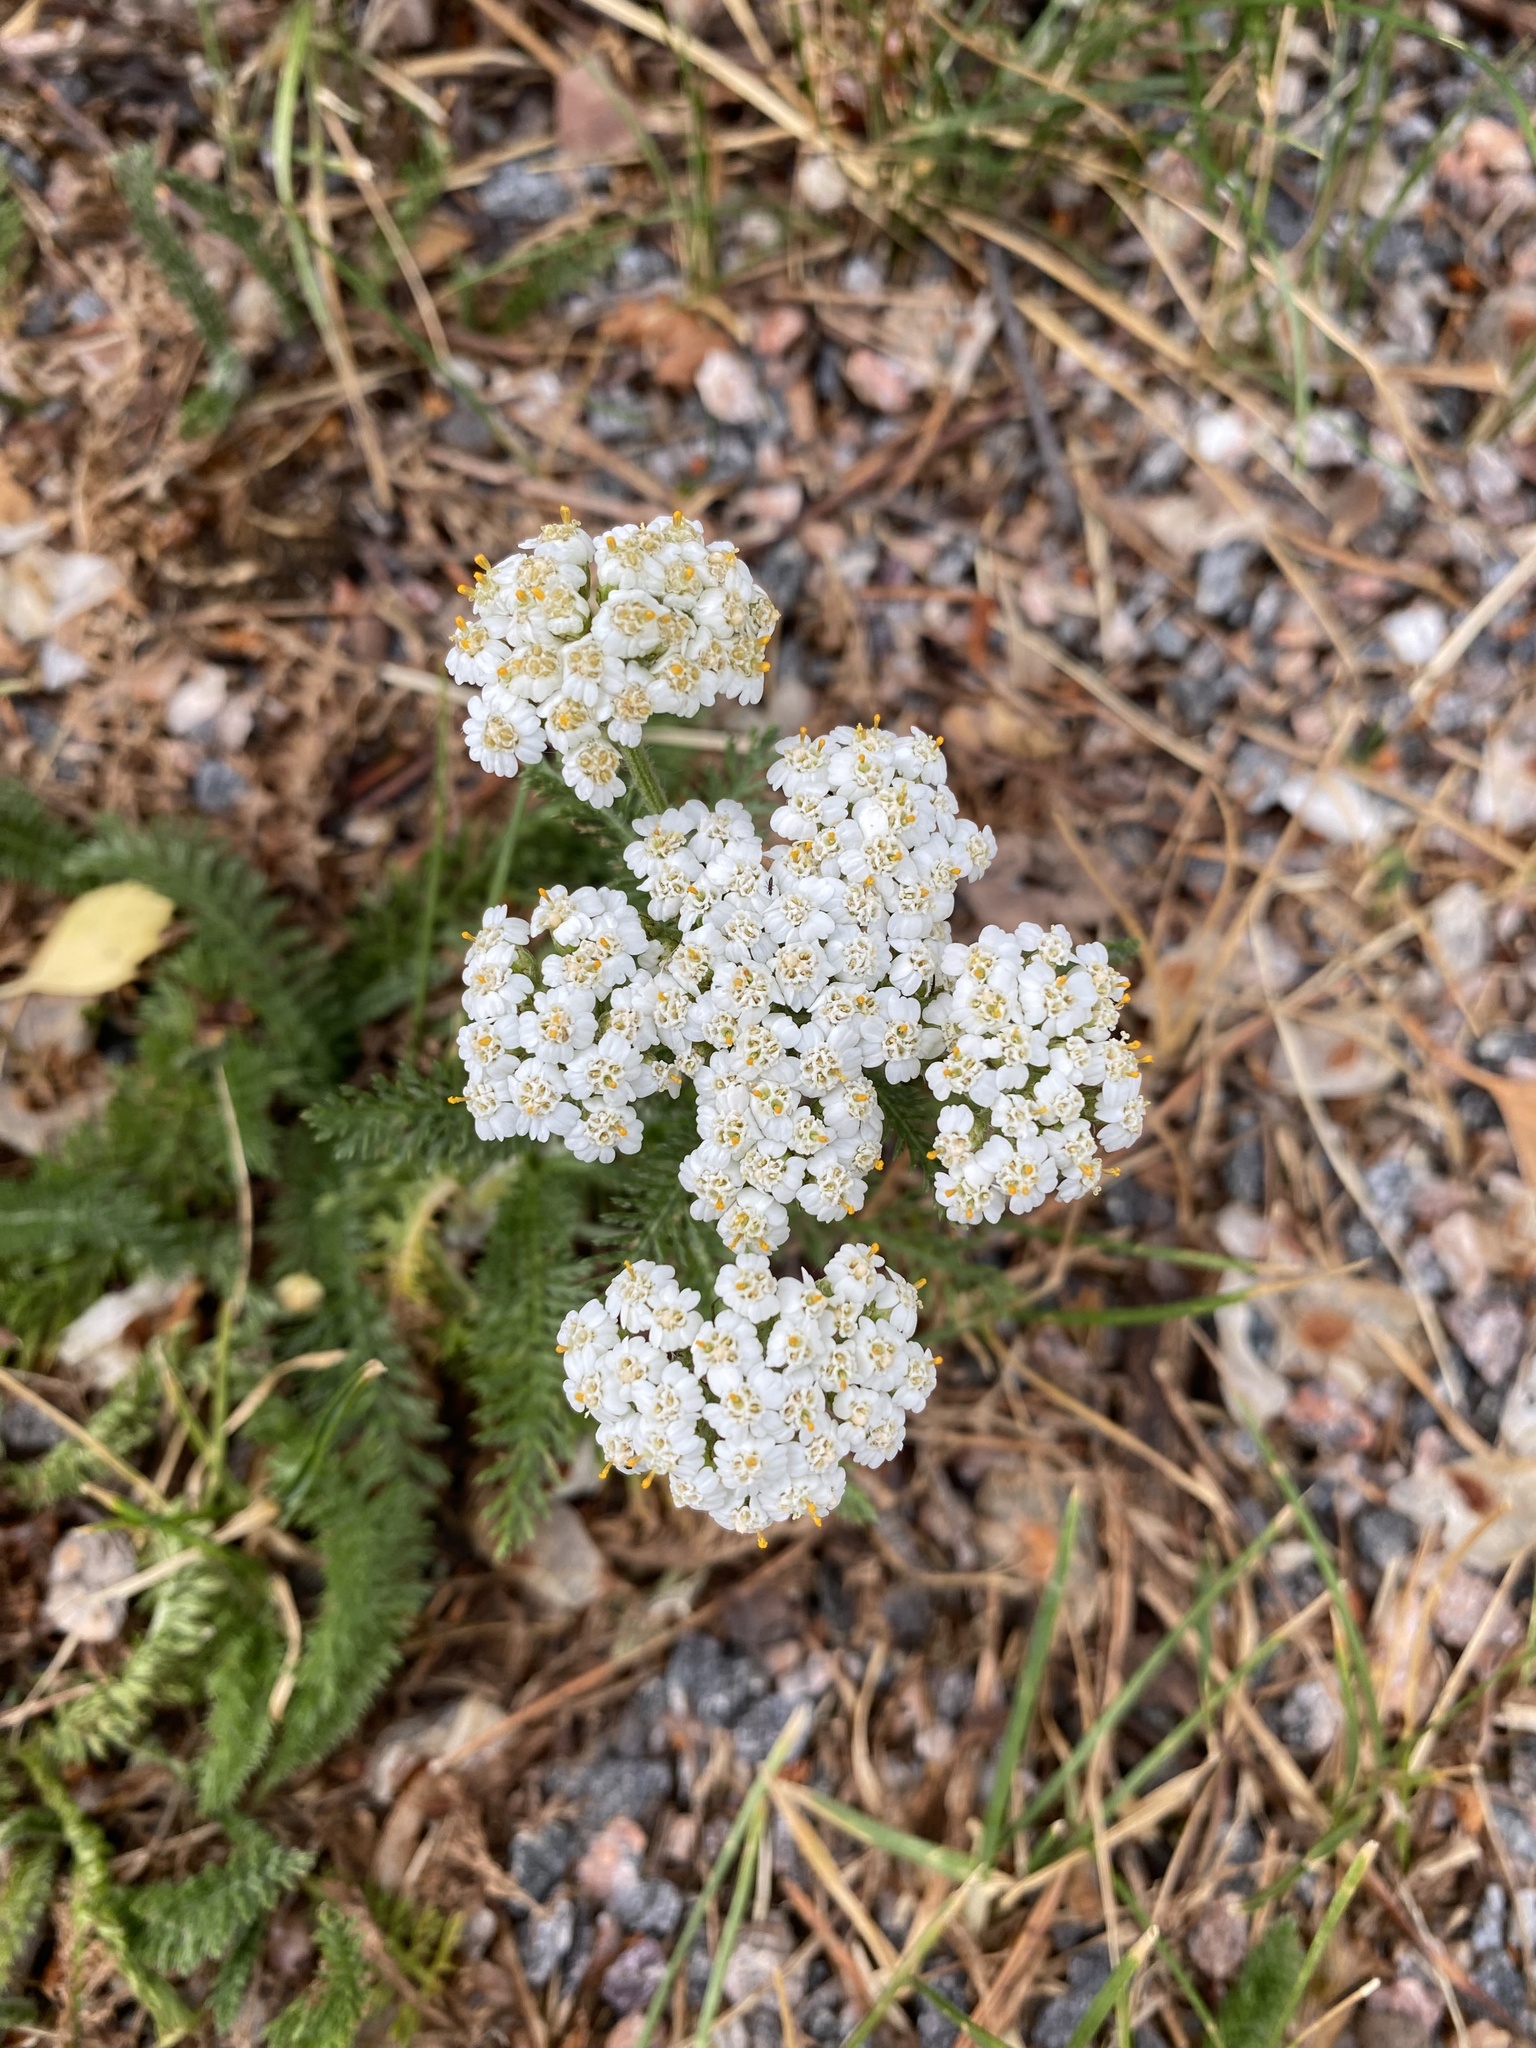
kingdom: Plantae
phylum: Tracheophyta
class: Magnoliopsida
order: Asterales
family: Asteraceae
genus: Achillea
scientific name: Achillea millefolium
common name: Yarrow
